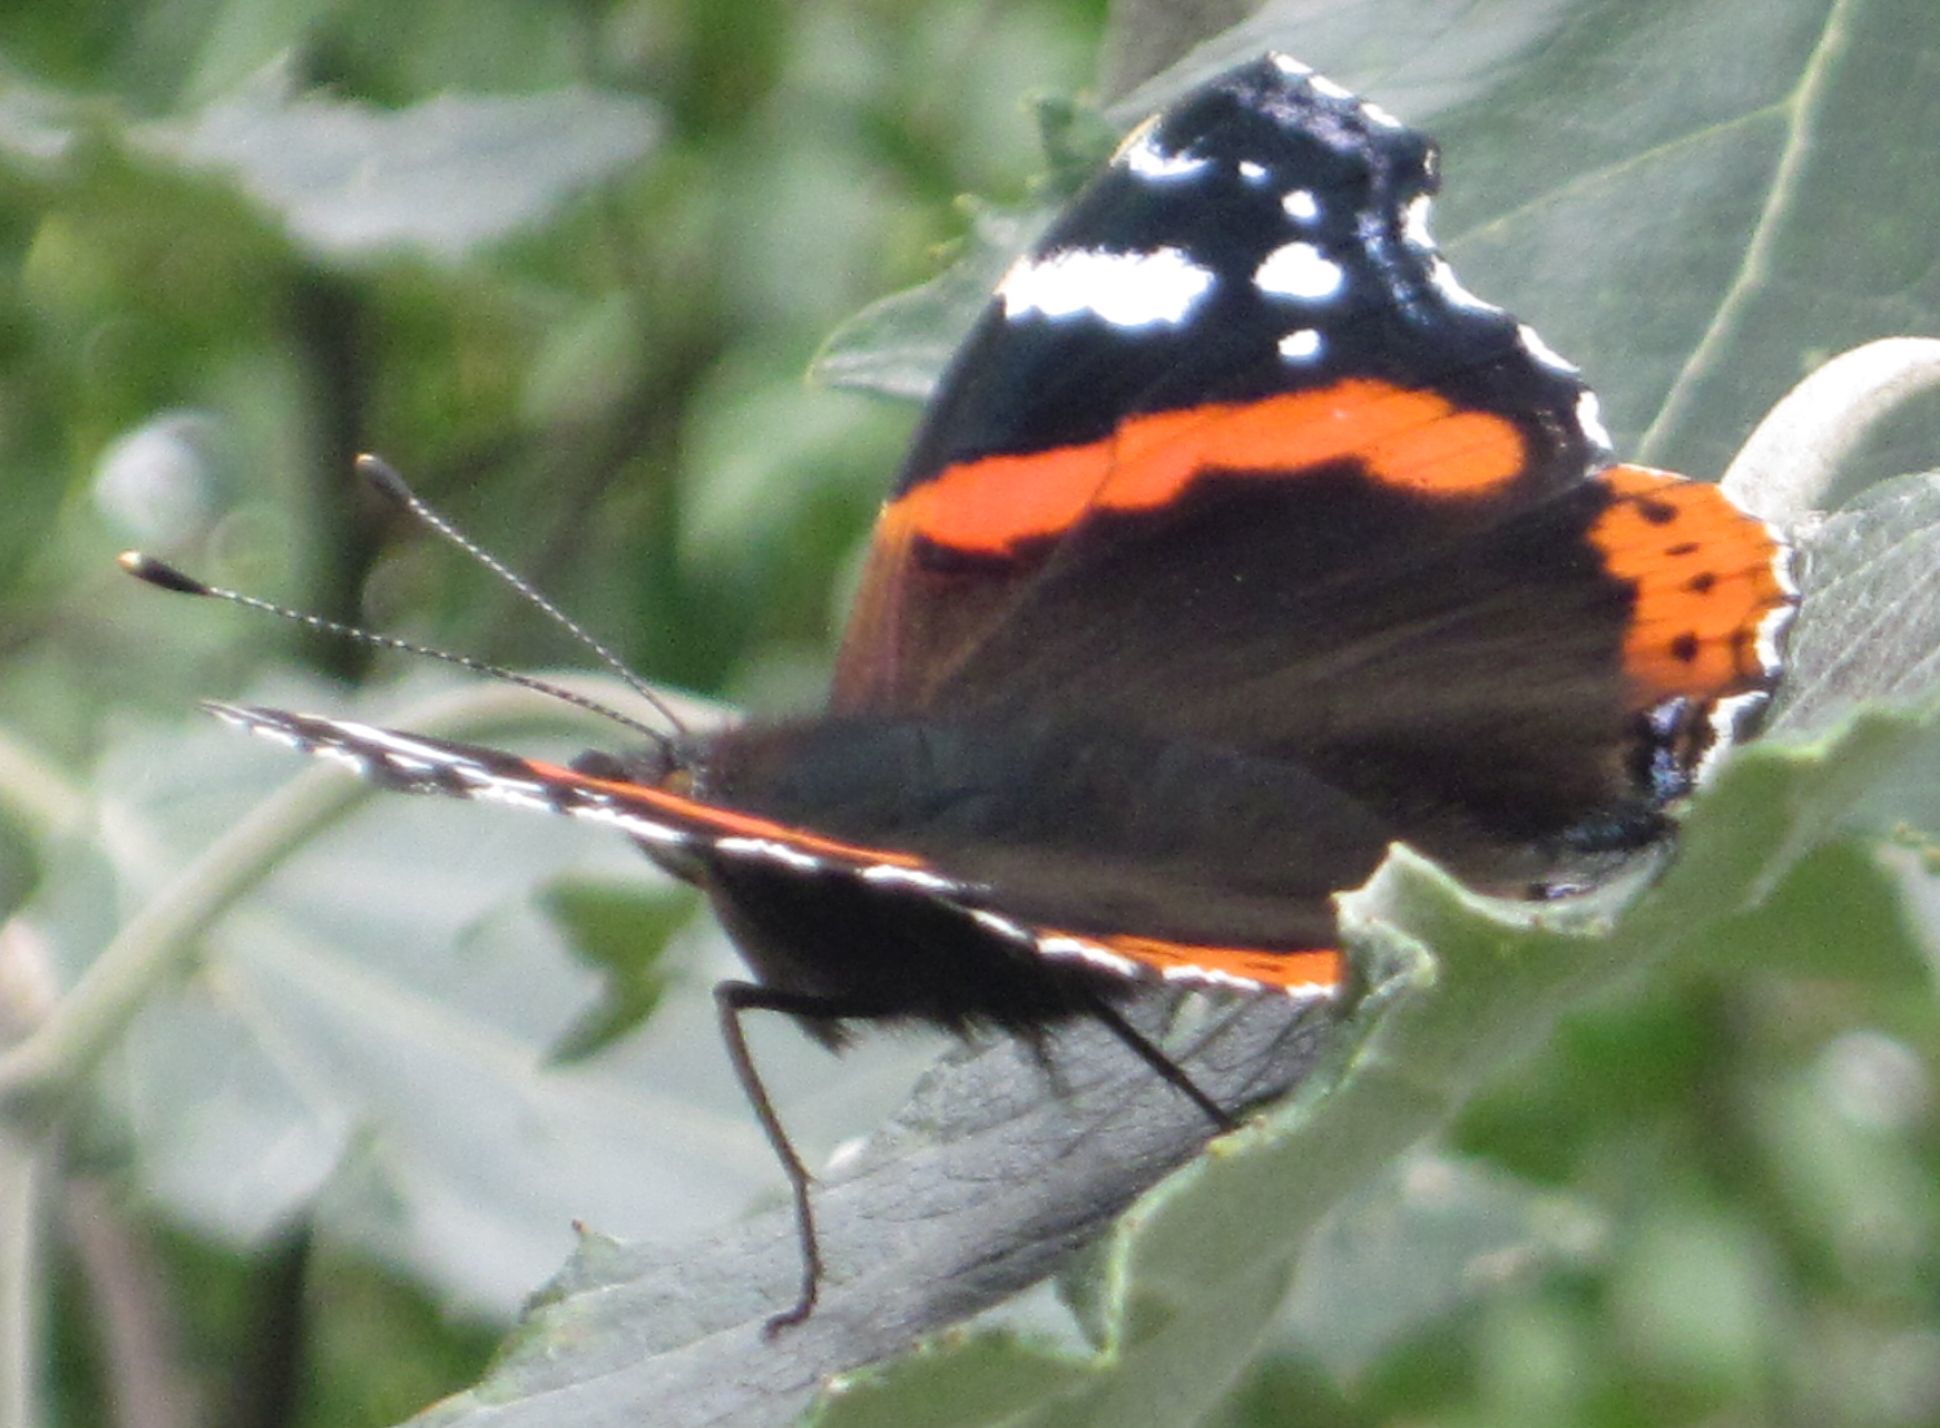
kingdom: Animalia
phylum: Arthropoda
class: Insecta
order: Lepidoptera
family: Nymphalidae
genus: Vanessa
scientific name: Vanessa atalanta
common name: Red admiral
